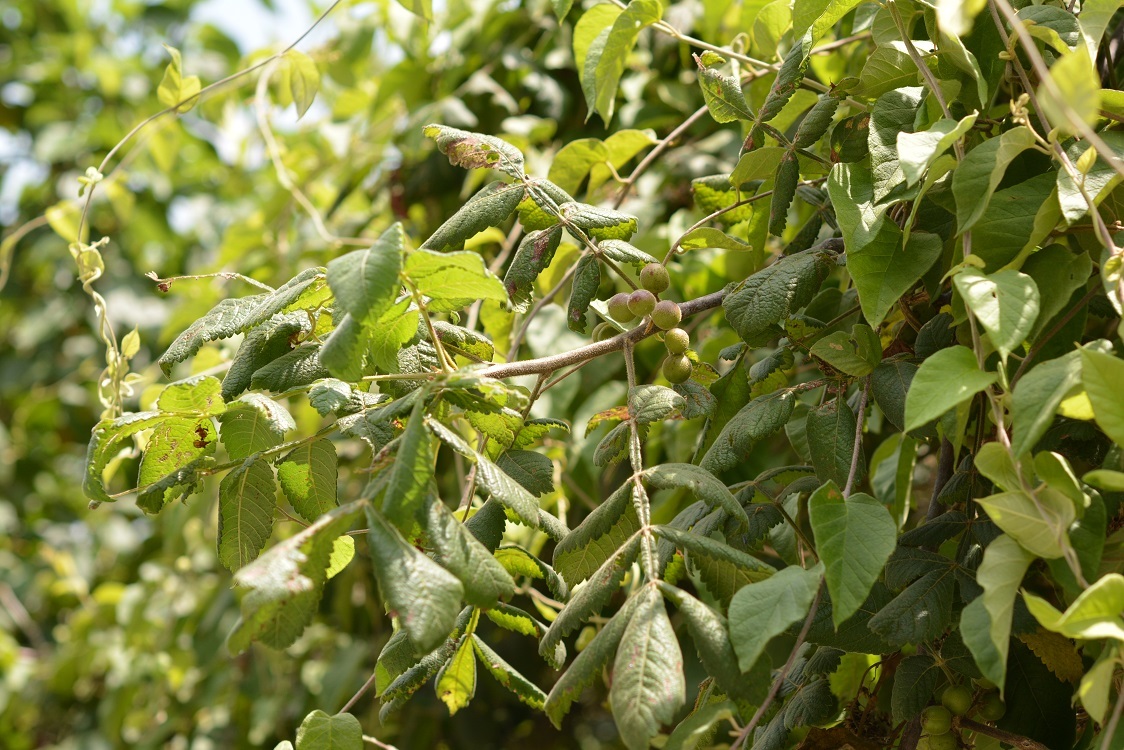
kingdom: Plantae
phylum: Tracheophyta
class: Magnoliopsida
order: Sapindales
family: Burseraceae
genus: Bursera
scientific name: Bursera excelsa
